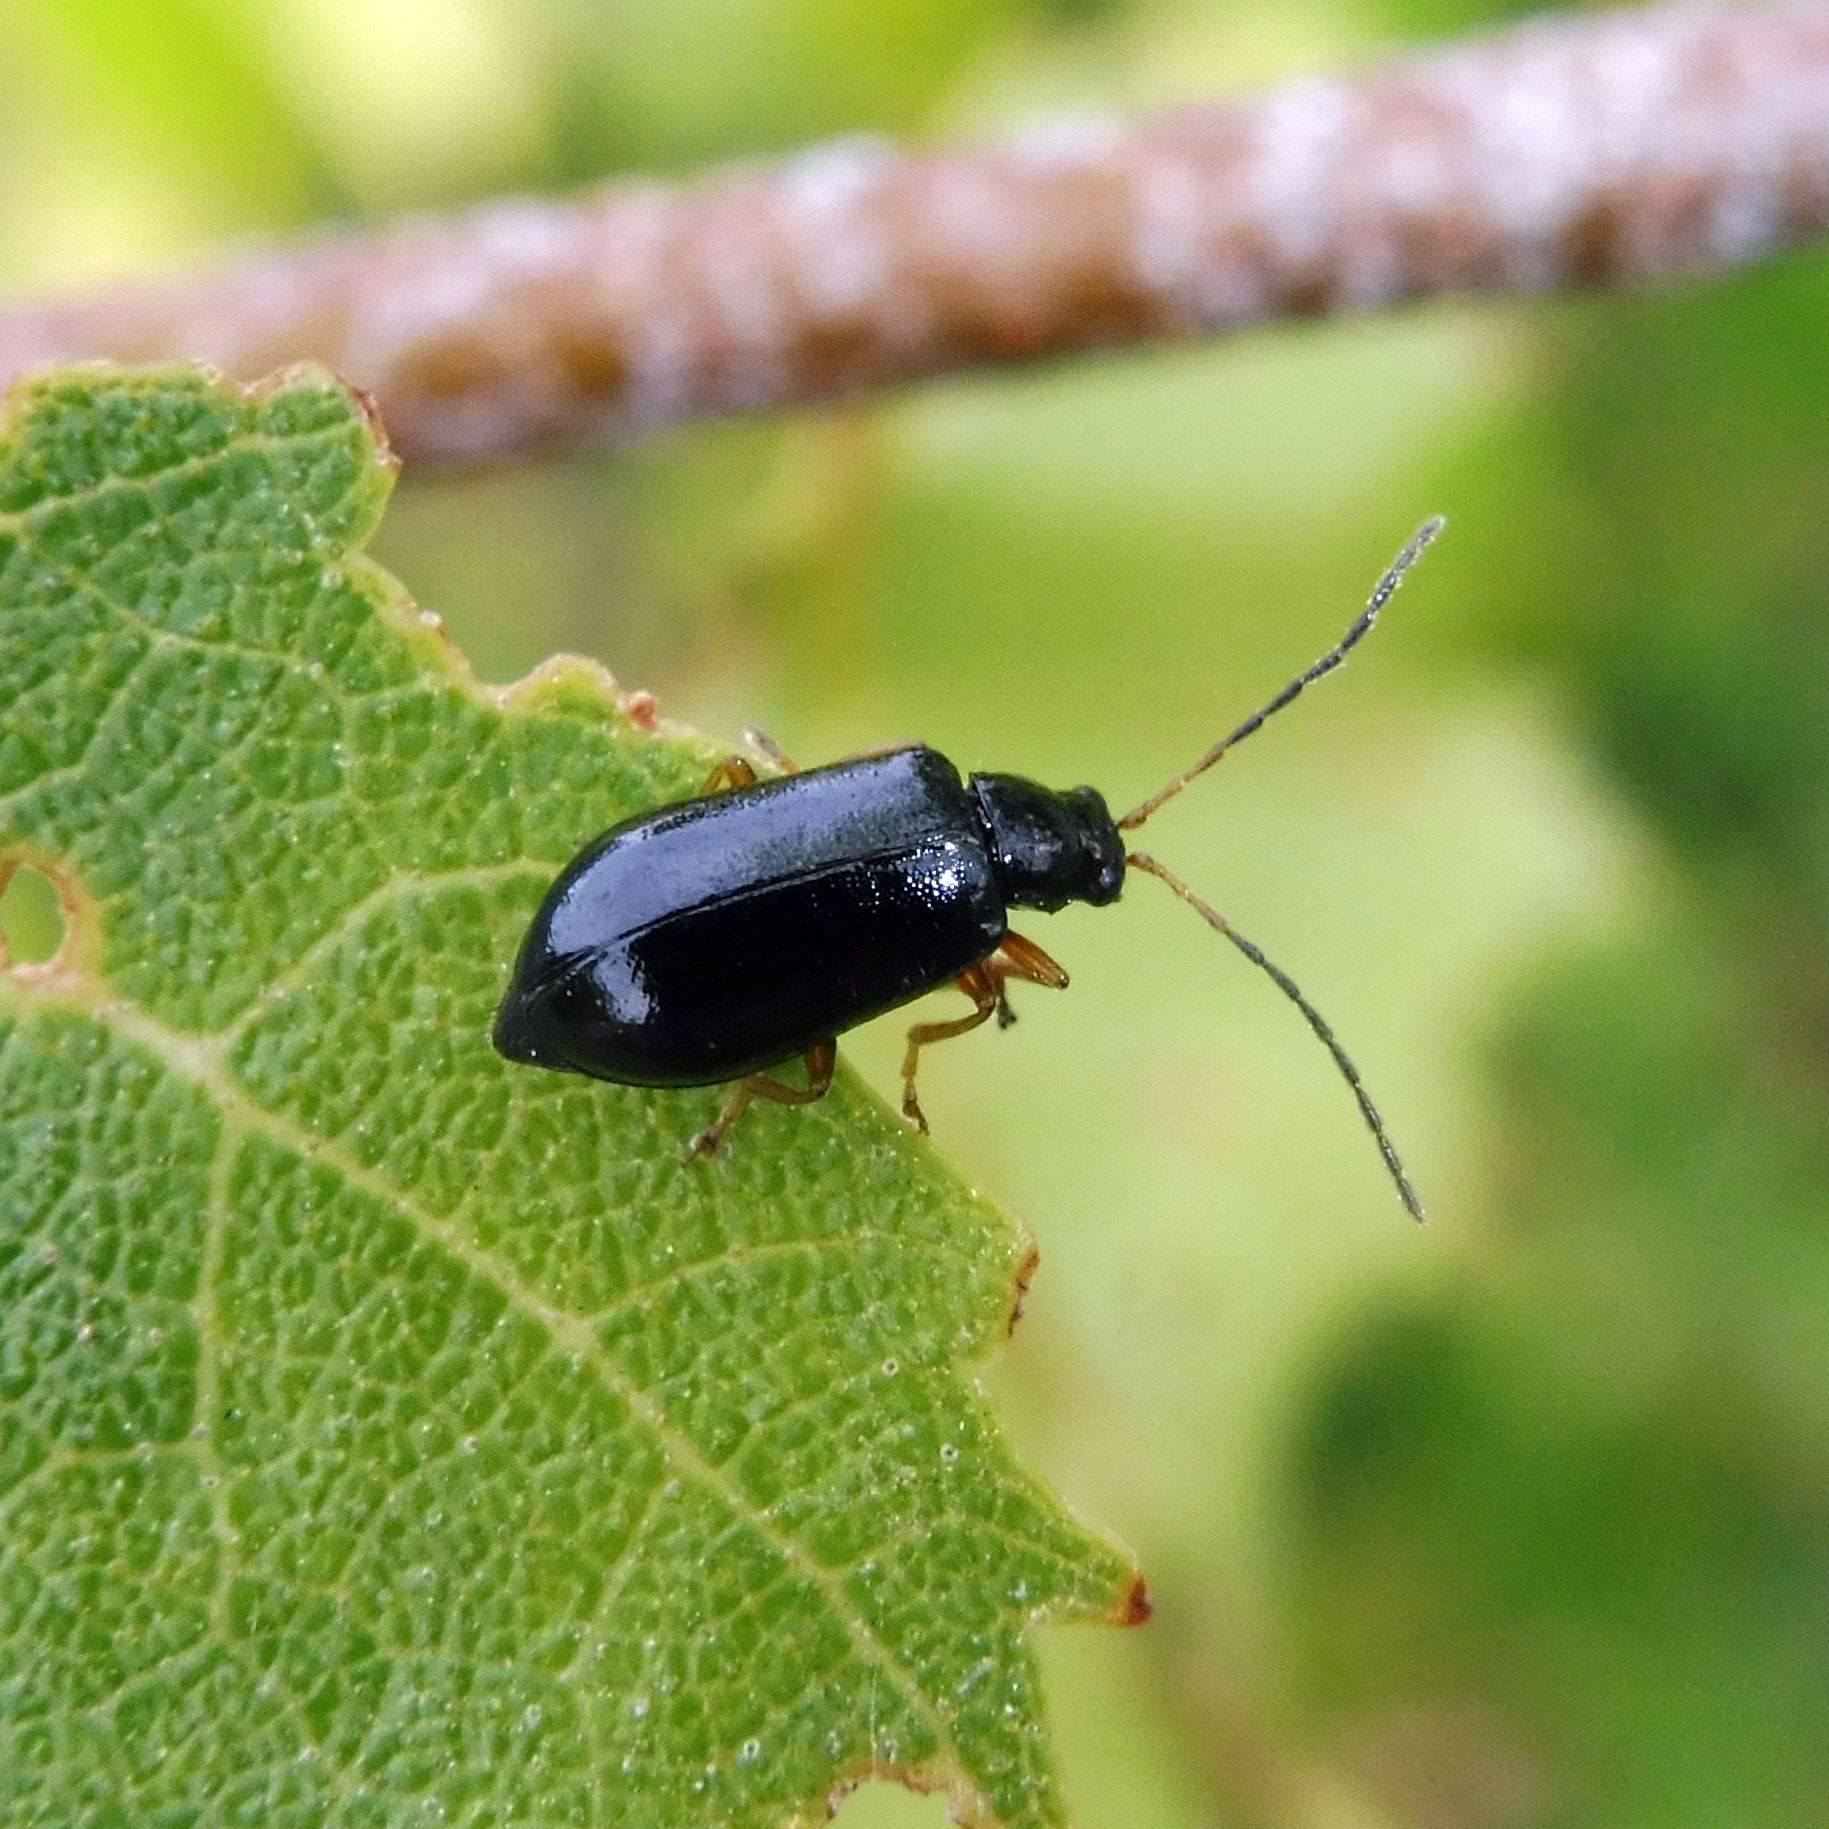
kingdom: Animalia
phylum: Arthropoda
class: Insecta
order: Coleoptera
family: Chrysomelidae
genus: Luperus
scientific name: Luperus longicornis
